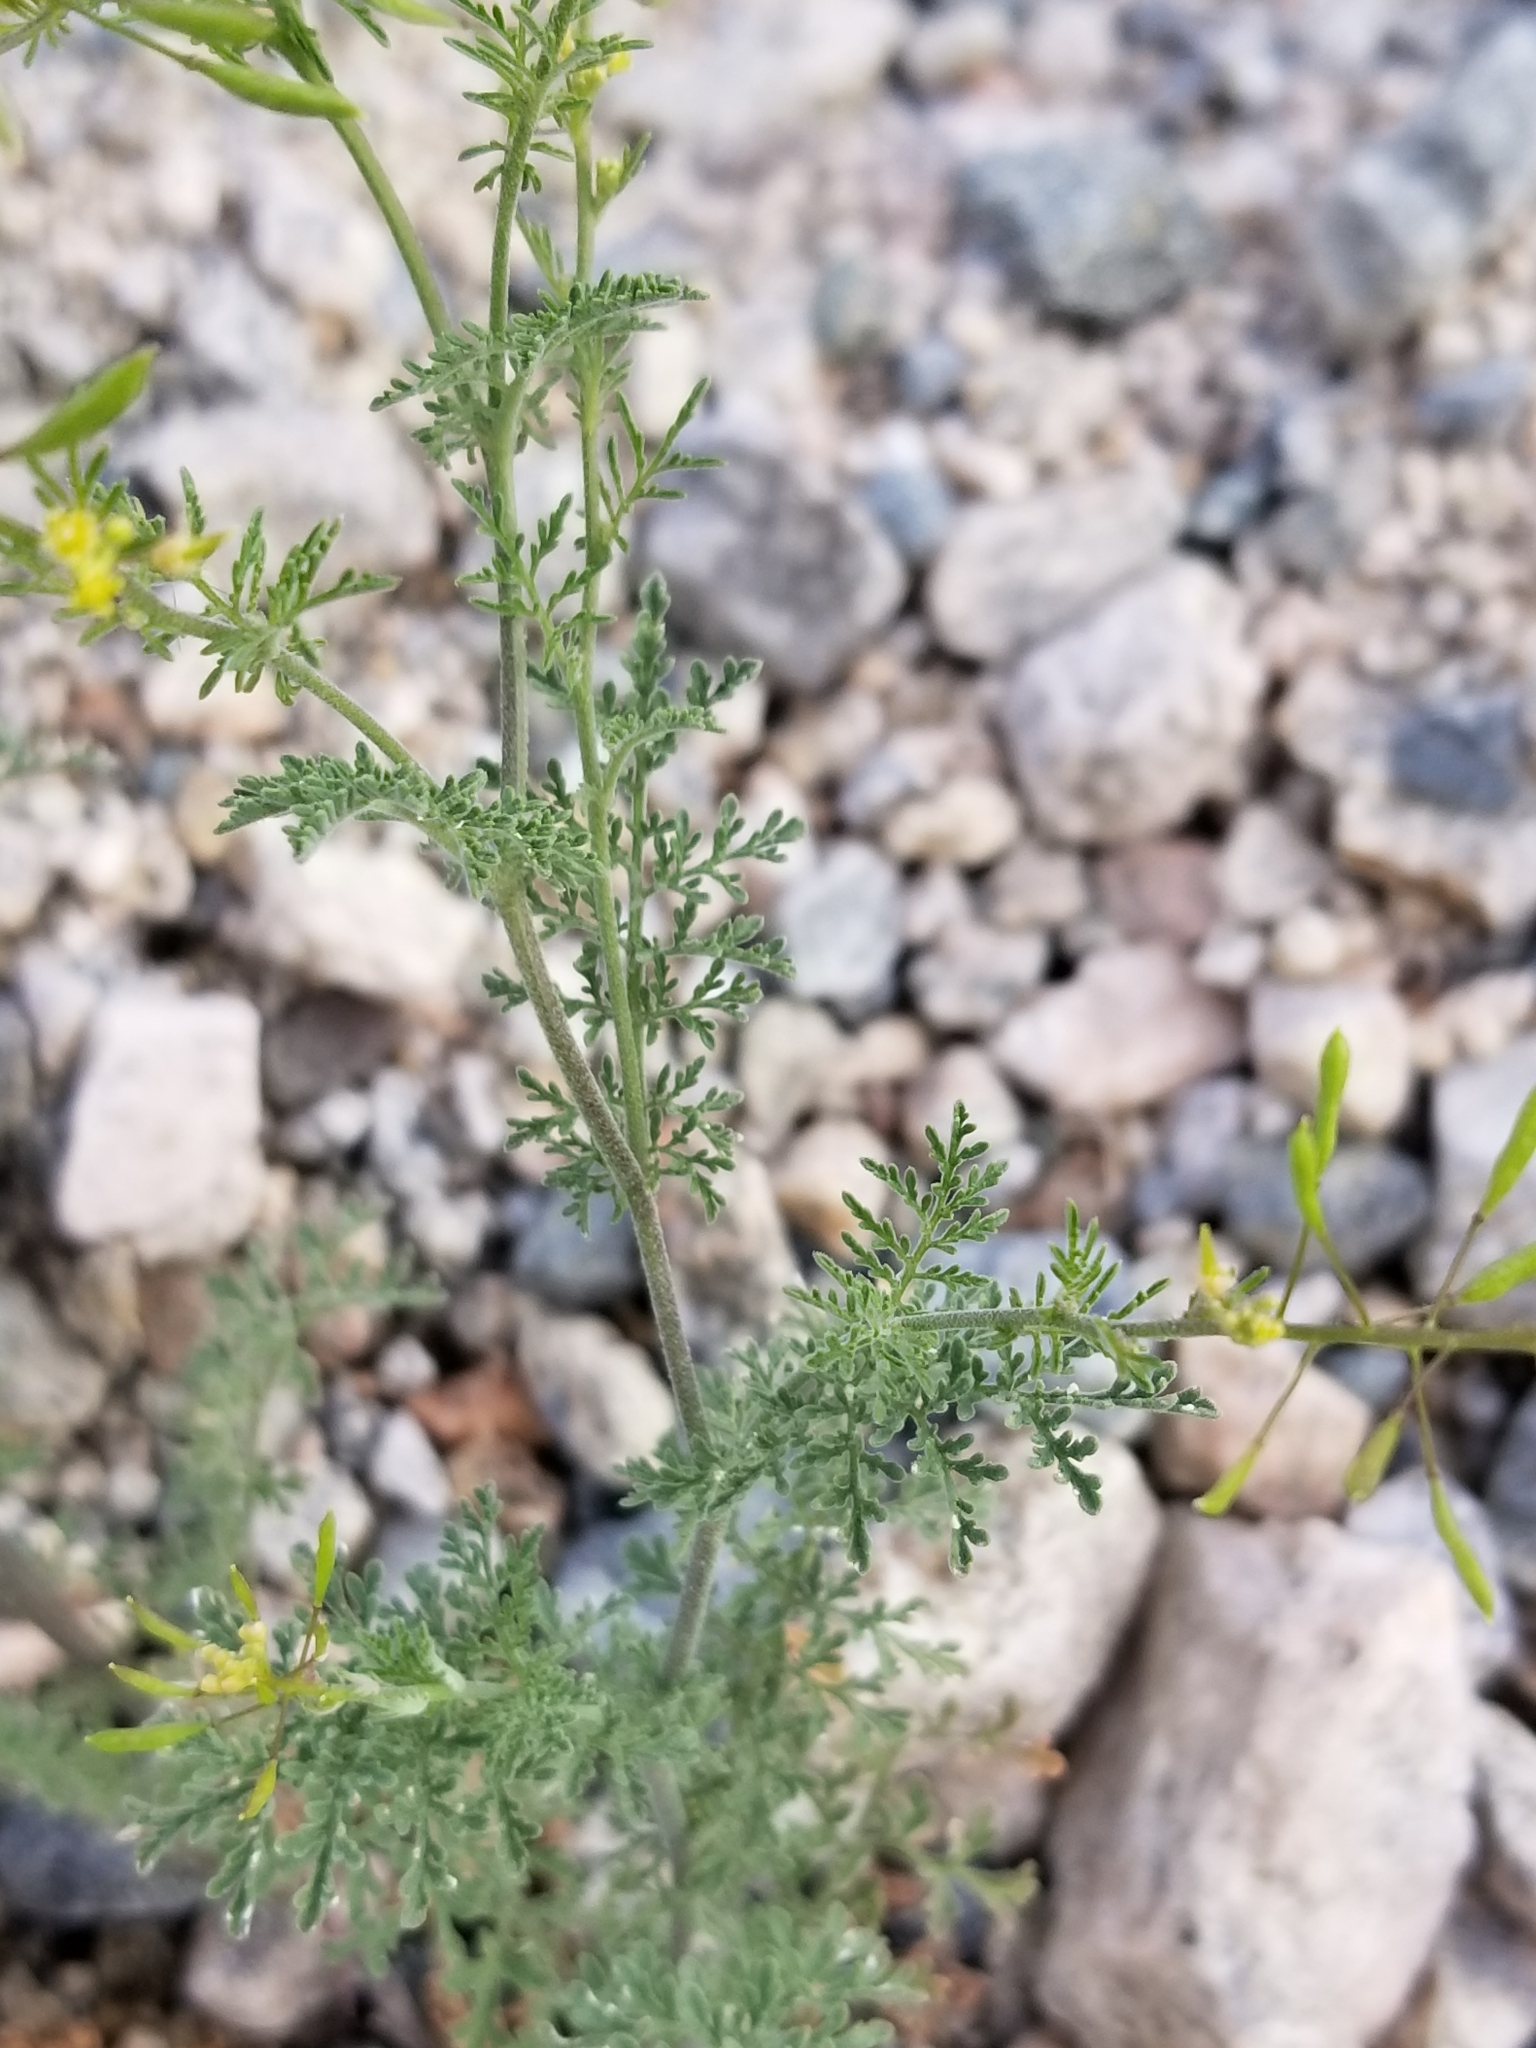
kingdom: Plantae
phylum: Tracheophyta
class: Magnoliopsida
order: Brassicales
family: Brassicaceae
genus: Descurainia
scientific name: Descurainia pinnata
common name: Western tansy mustard
